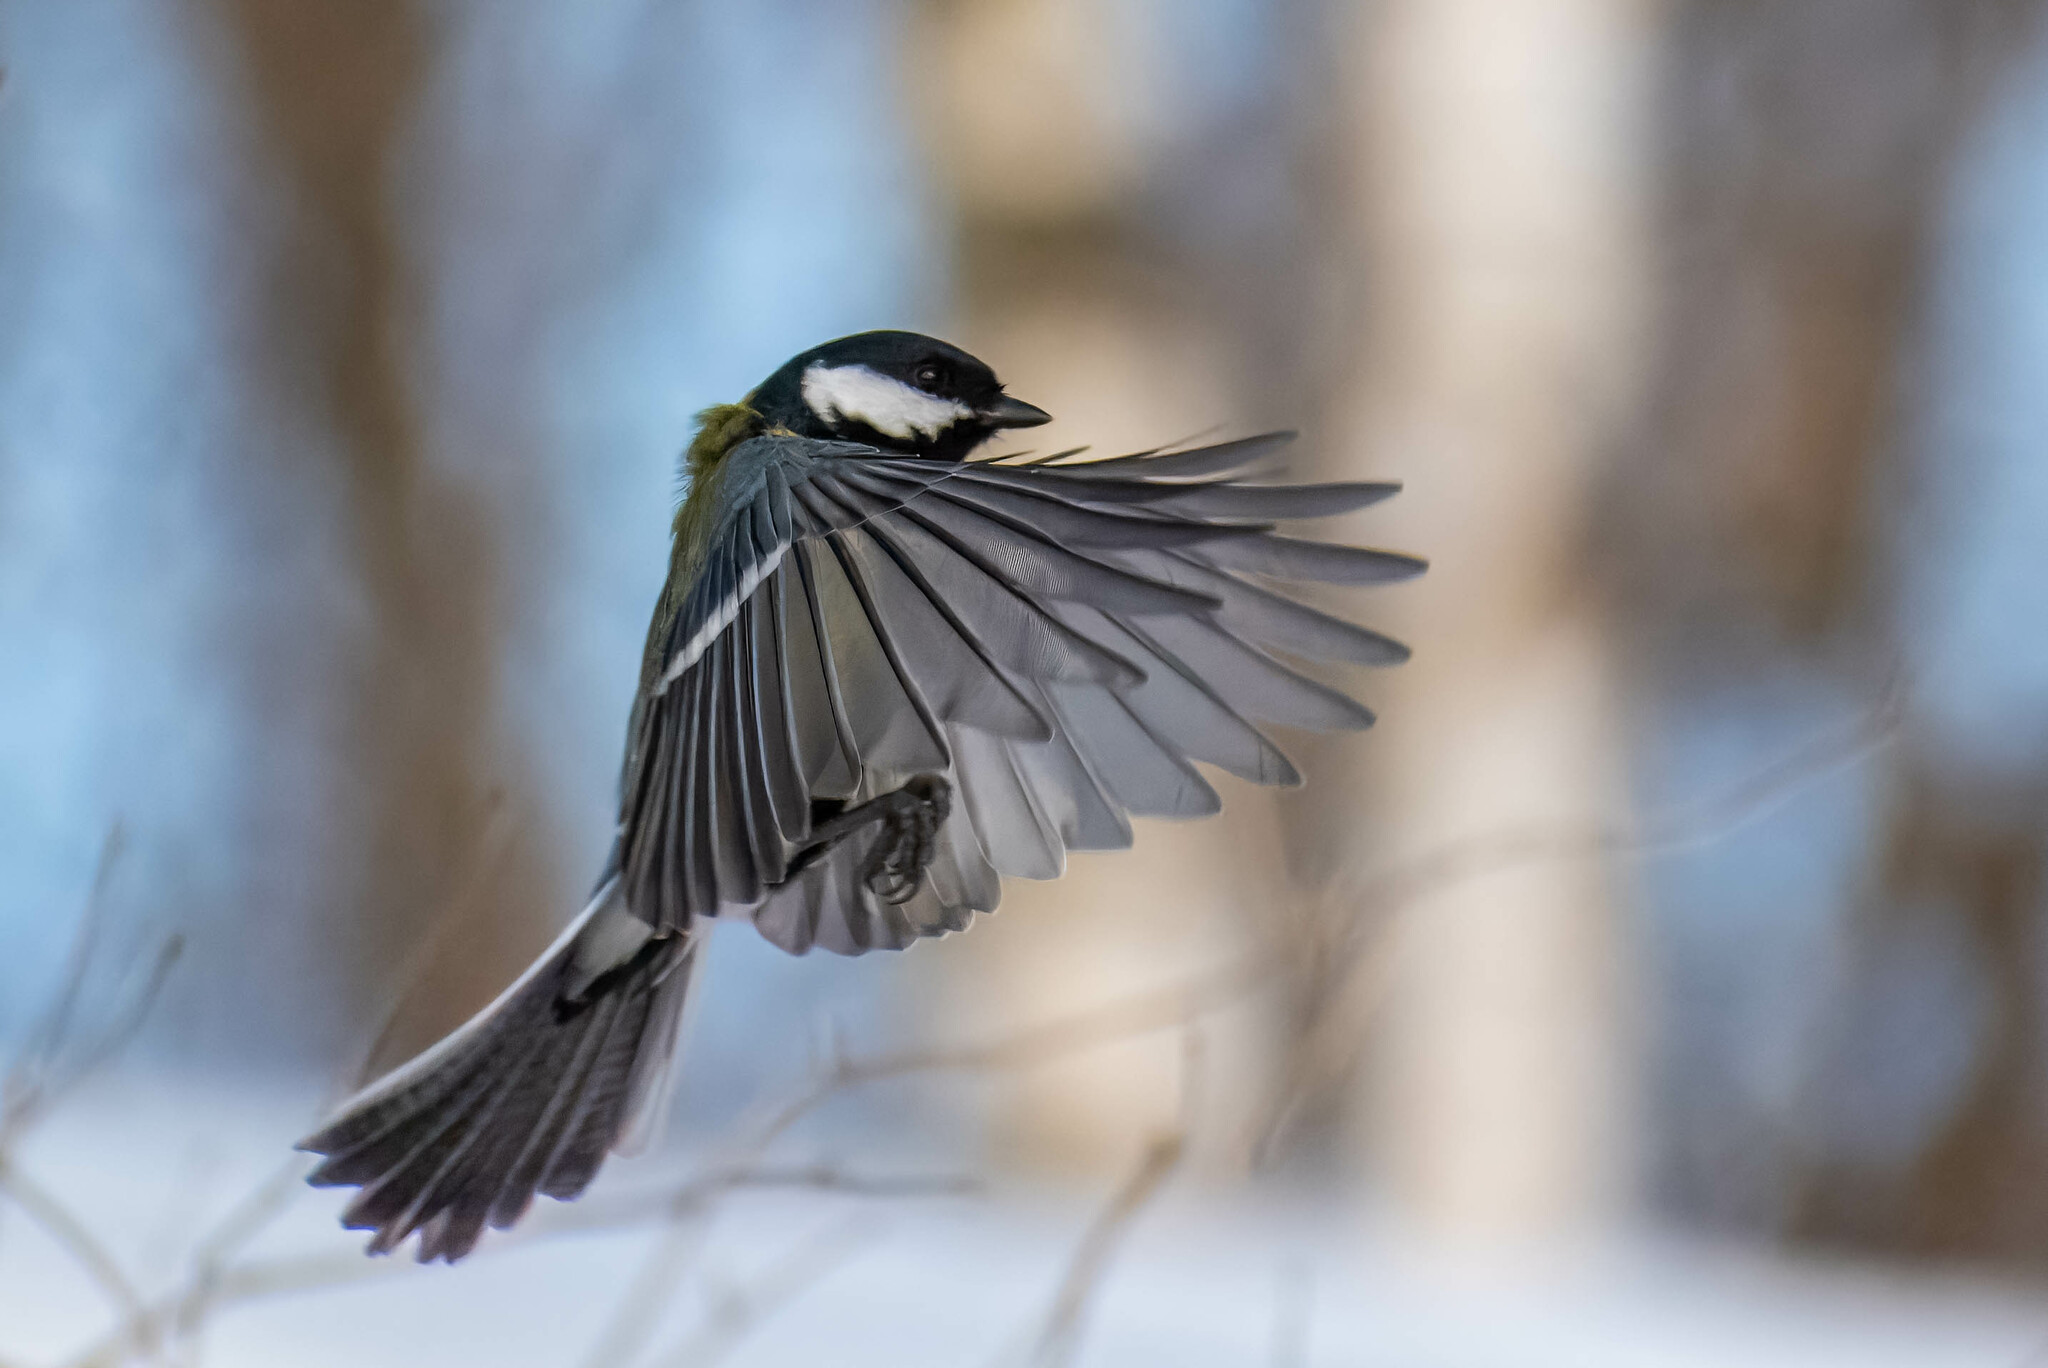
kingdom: Animalia
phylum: Chordata
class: Aves
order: Passeriformes
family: Paridae
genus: Parus
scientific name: Parus major
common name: Great tit
